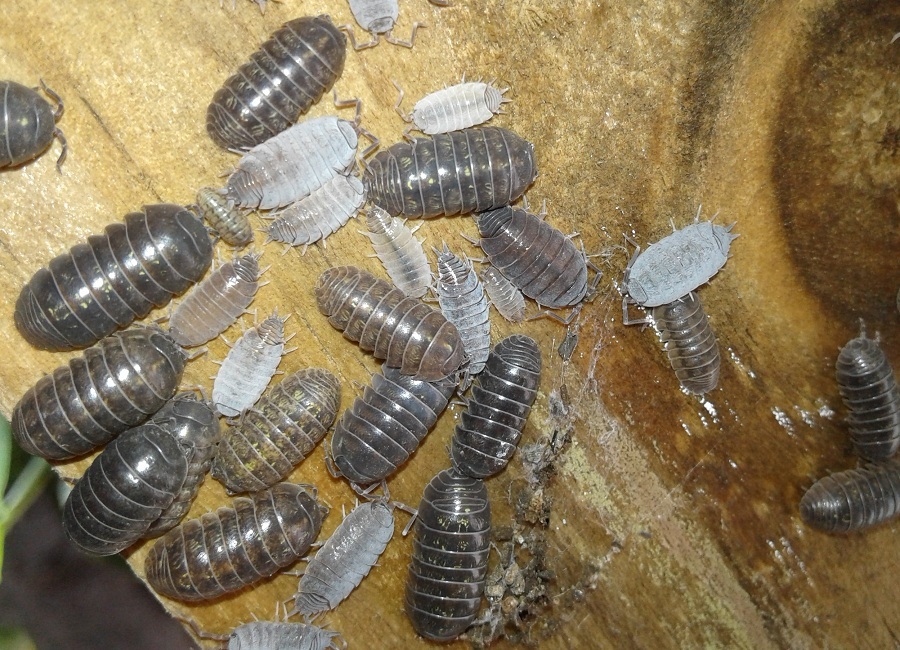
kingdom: Animalia
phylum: Arthropoda
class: Malacostraca
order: Isopoda
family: Porcellionidae
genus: Porcellionides
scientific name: Porcellionides pruinosus
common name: Plum woodlouse
